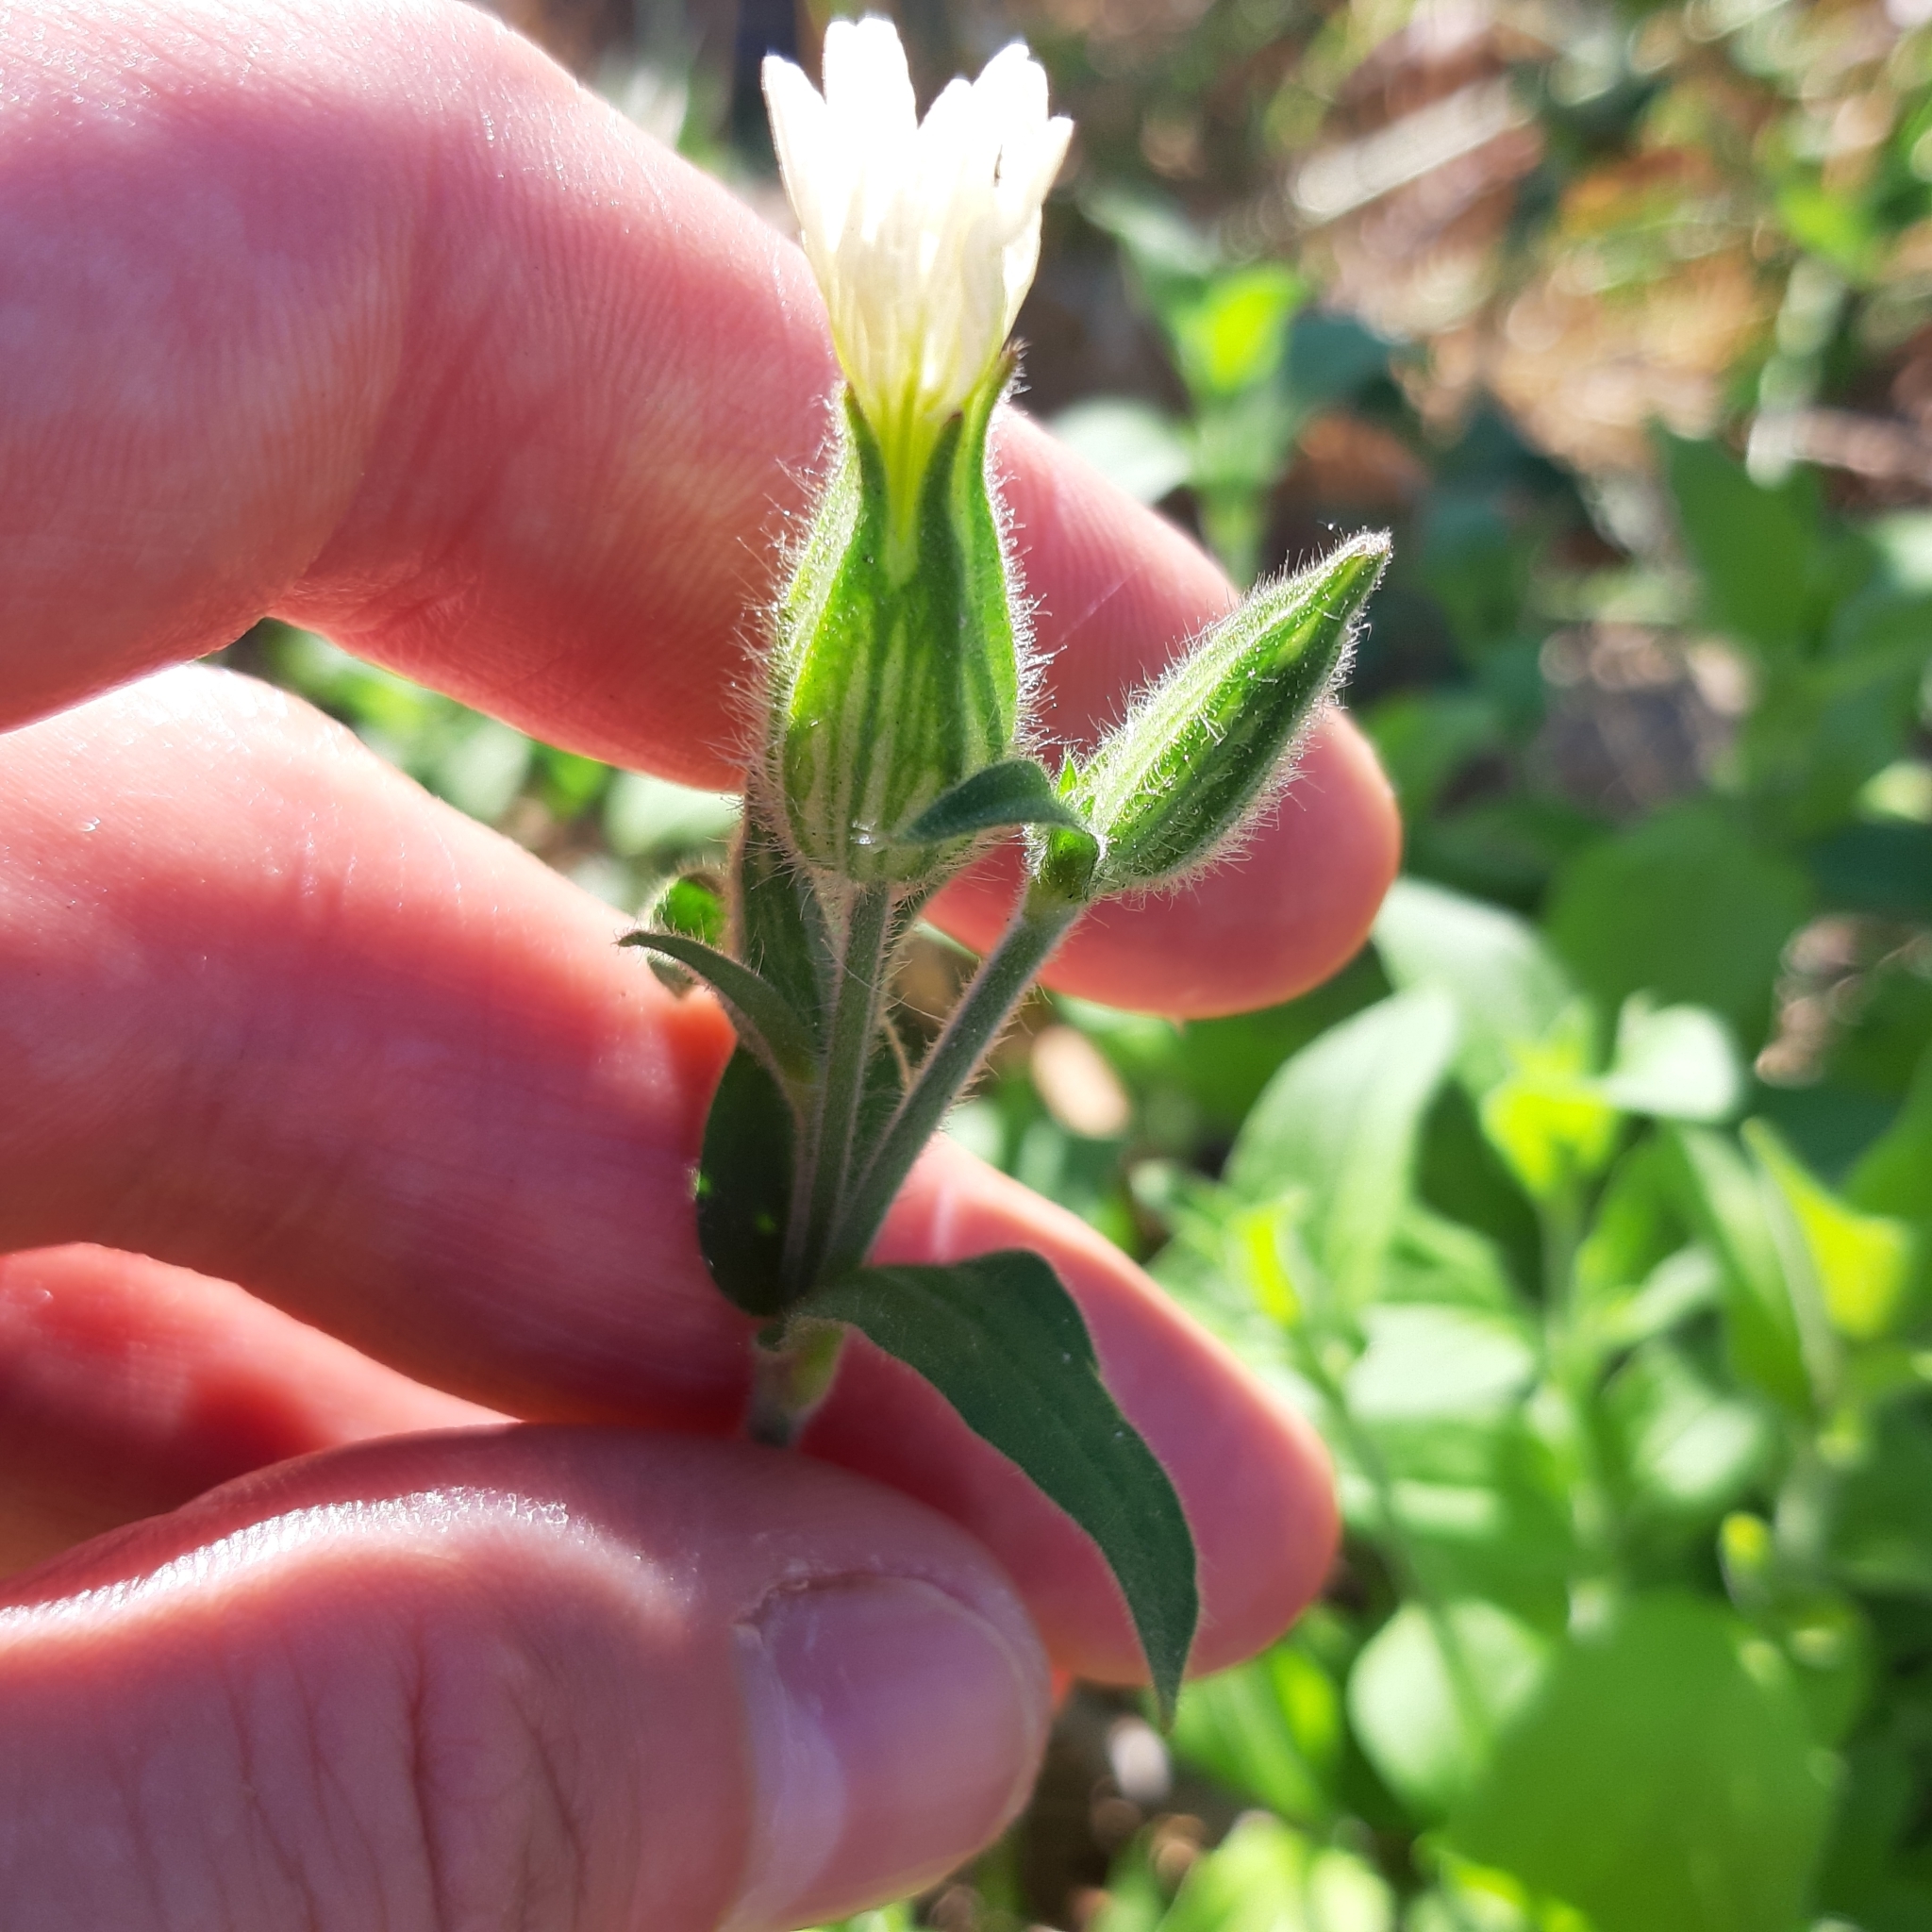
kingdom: Plantae
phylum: Tracheophyta
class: Magnoliopsida
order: Caryophyllales
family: Caryophyllaceae
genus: Silene
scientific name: Silene latifolia
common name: White campion
